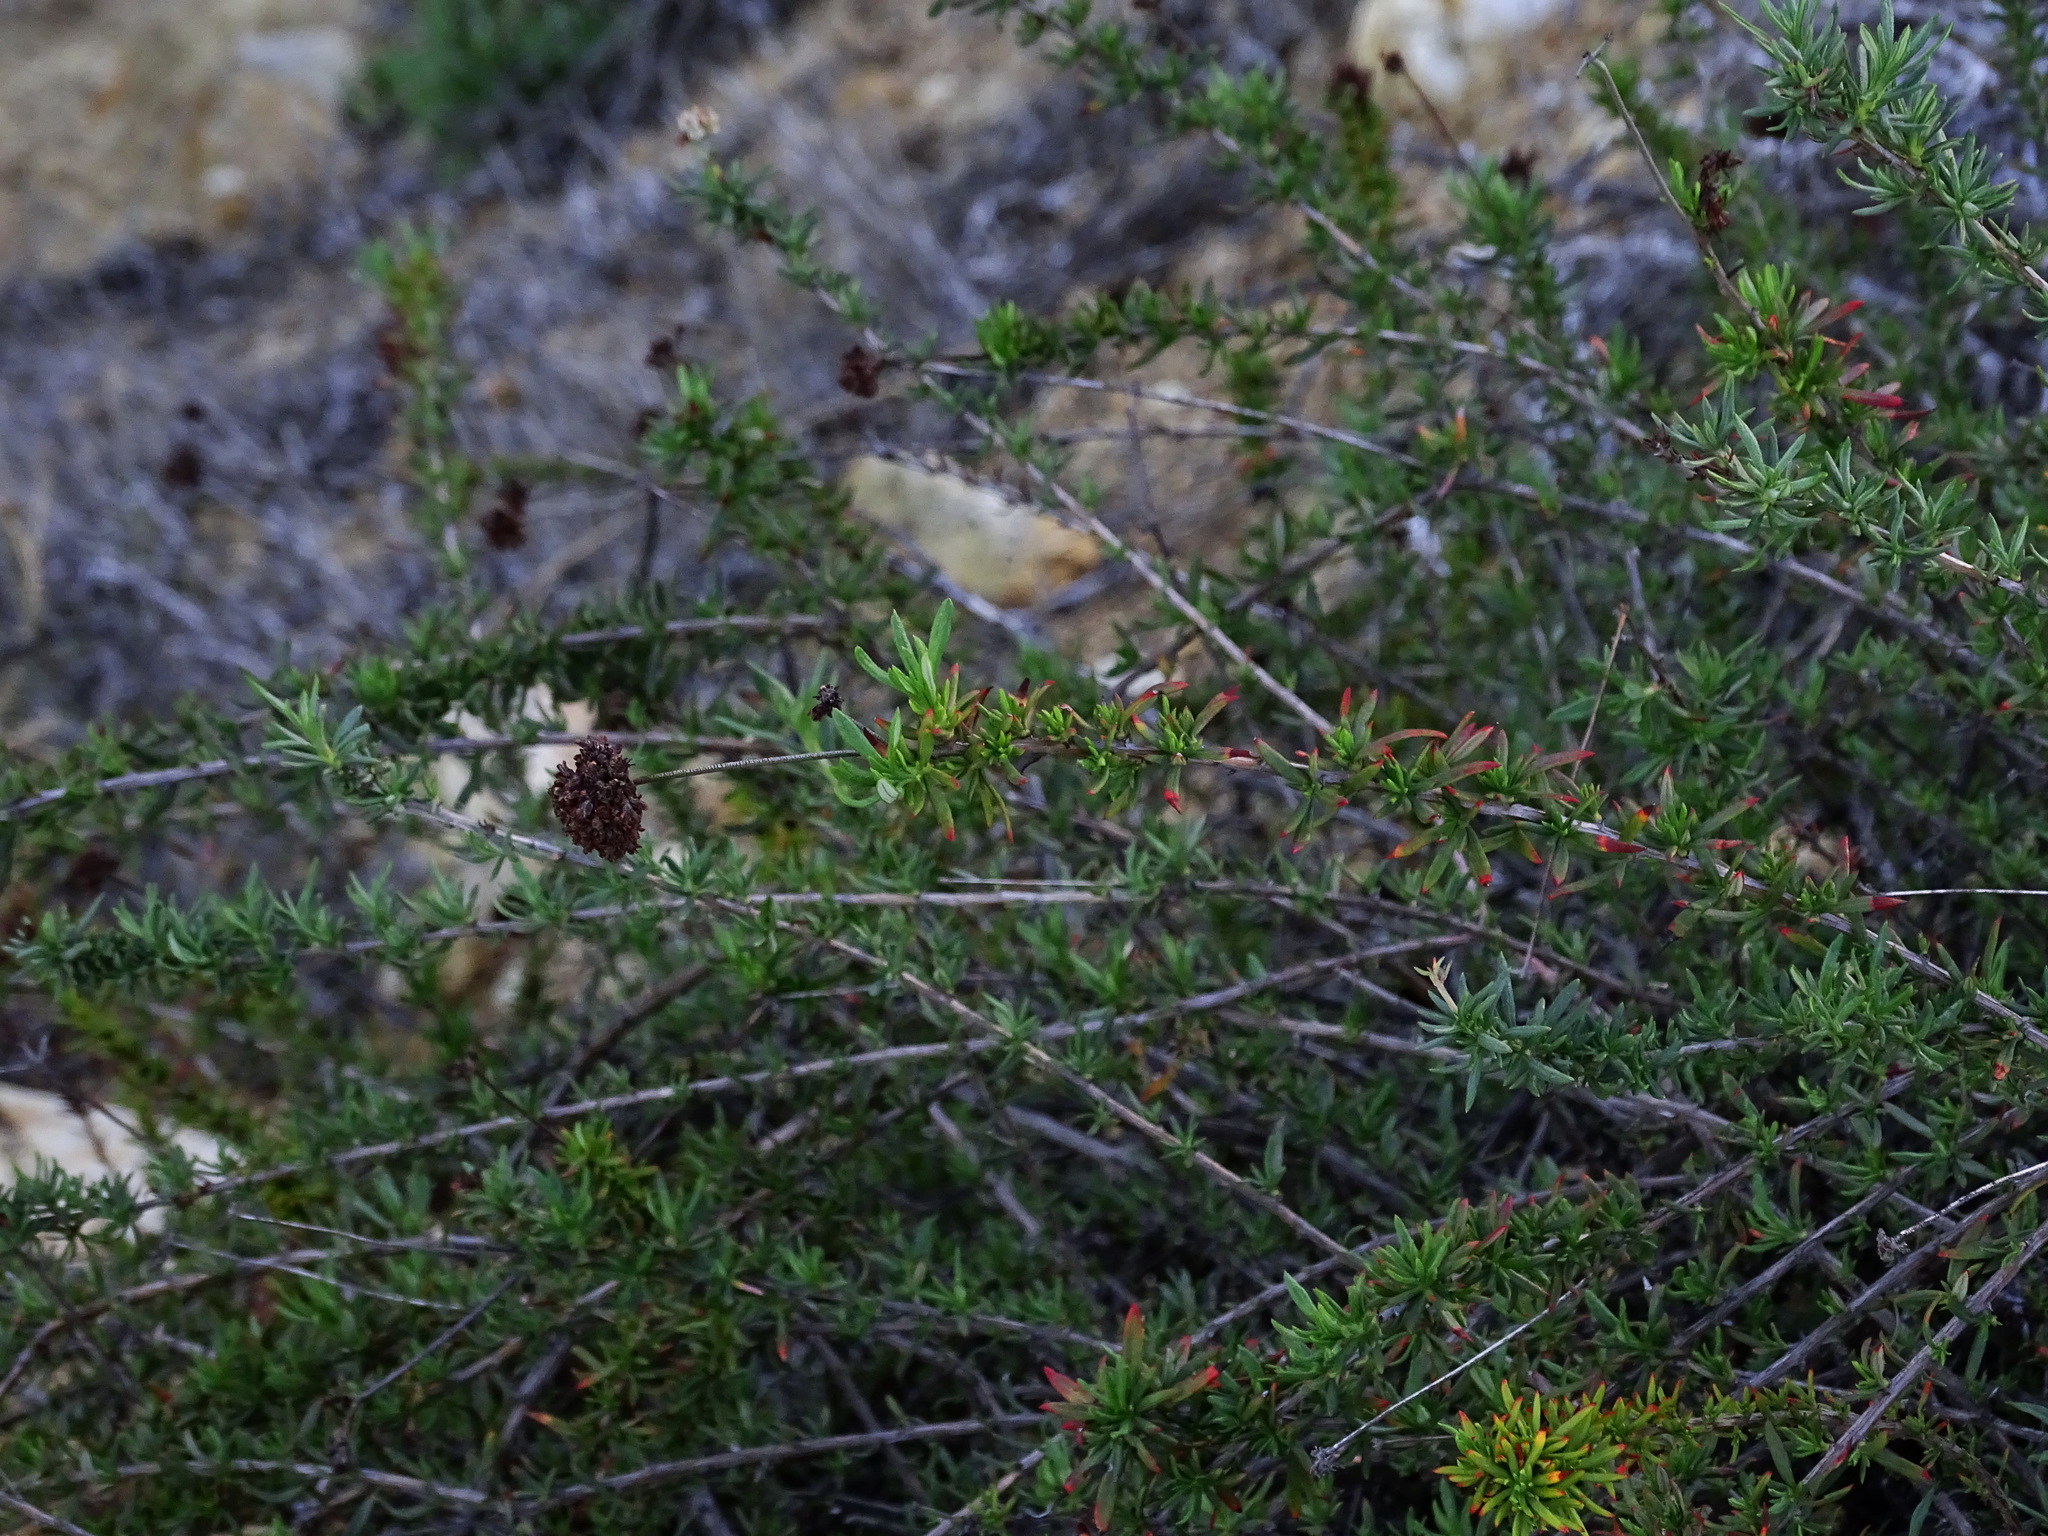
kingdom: Plantae
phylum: Tracheophyta
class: Magnoliopsida
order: Caryophyllales
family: Polygonaceae
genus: Eriogonum
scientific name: Eriogonum fasciculatum
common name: California wild buckwheat
